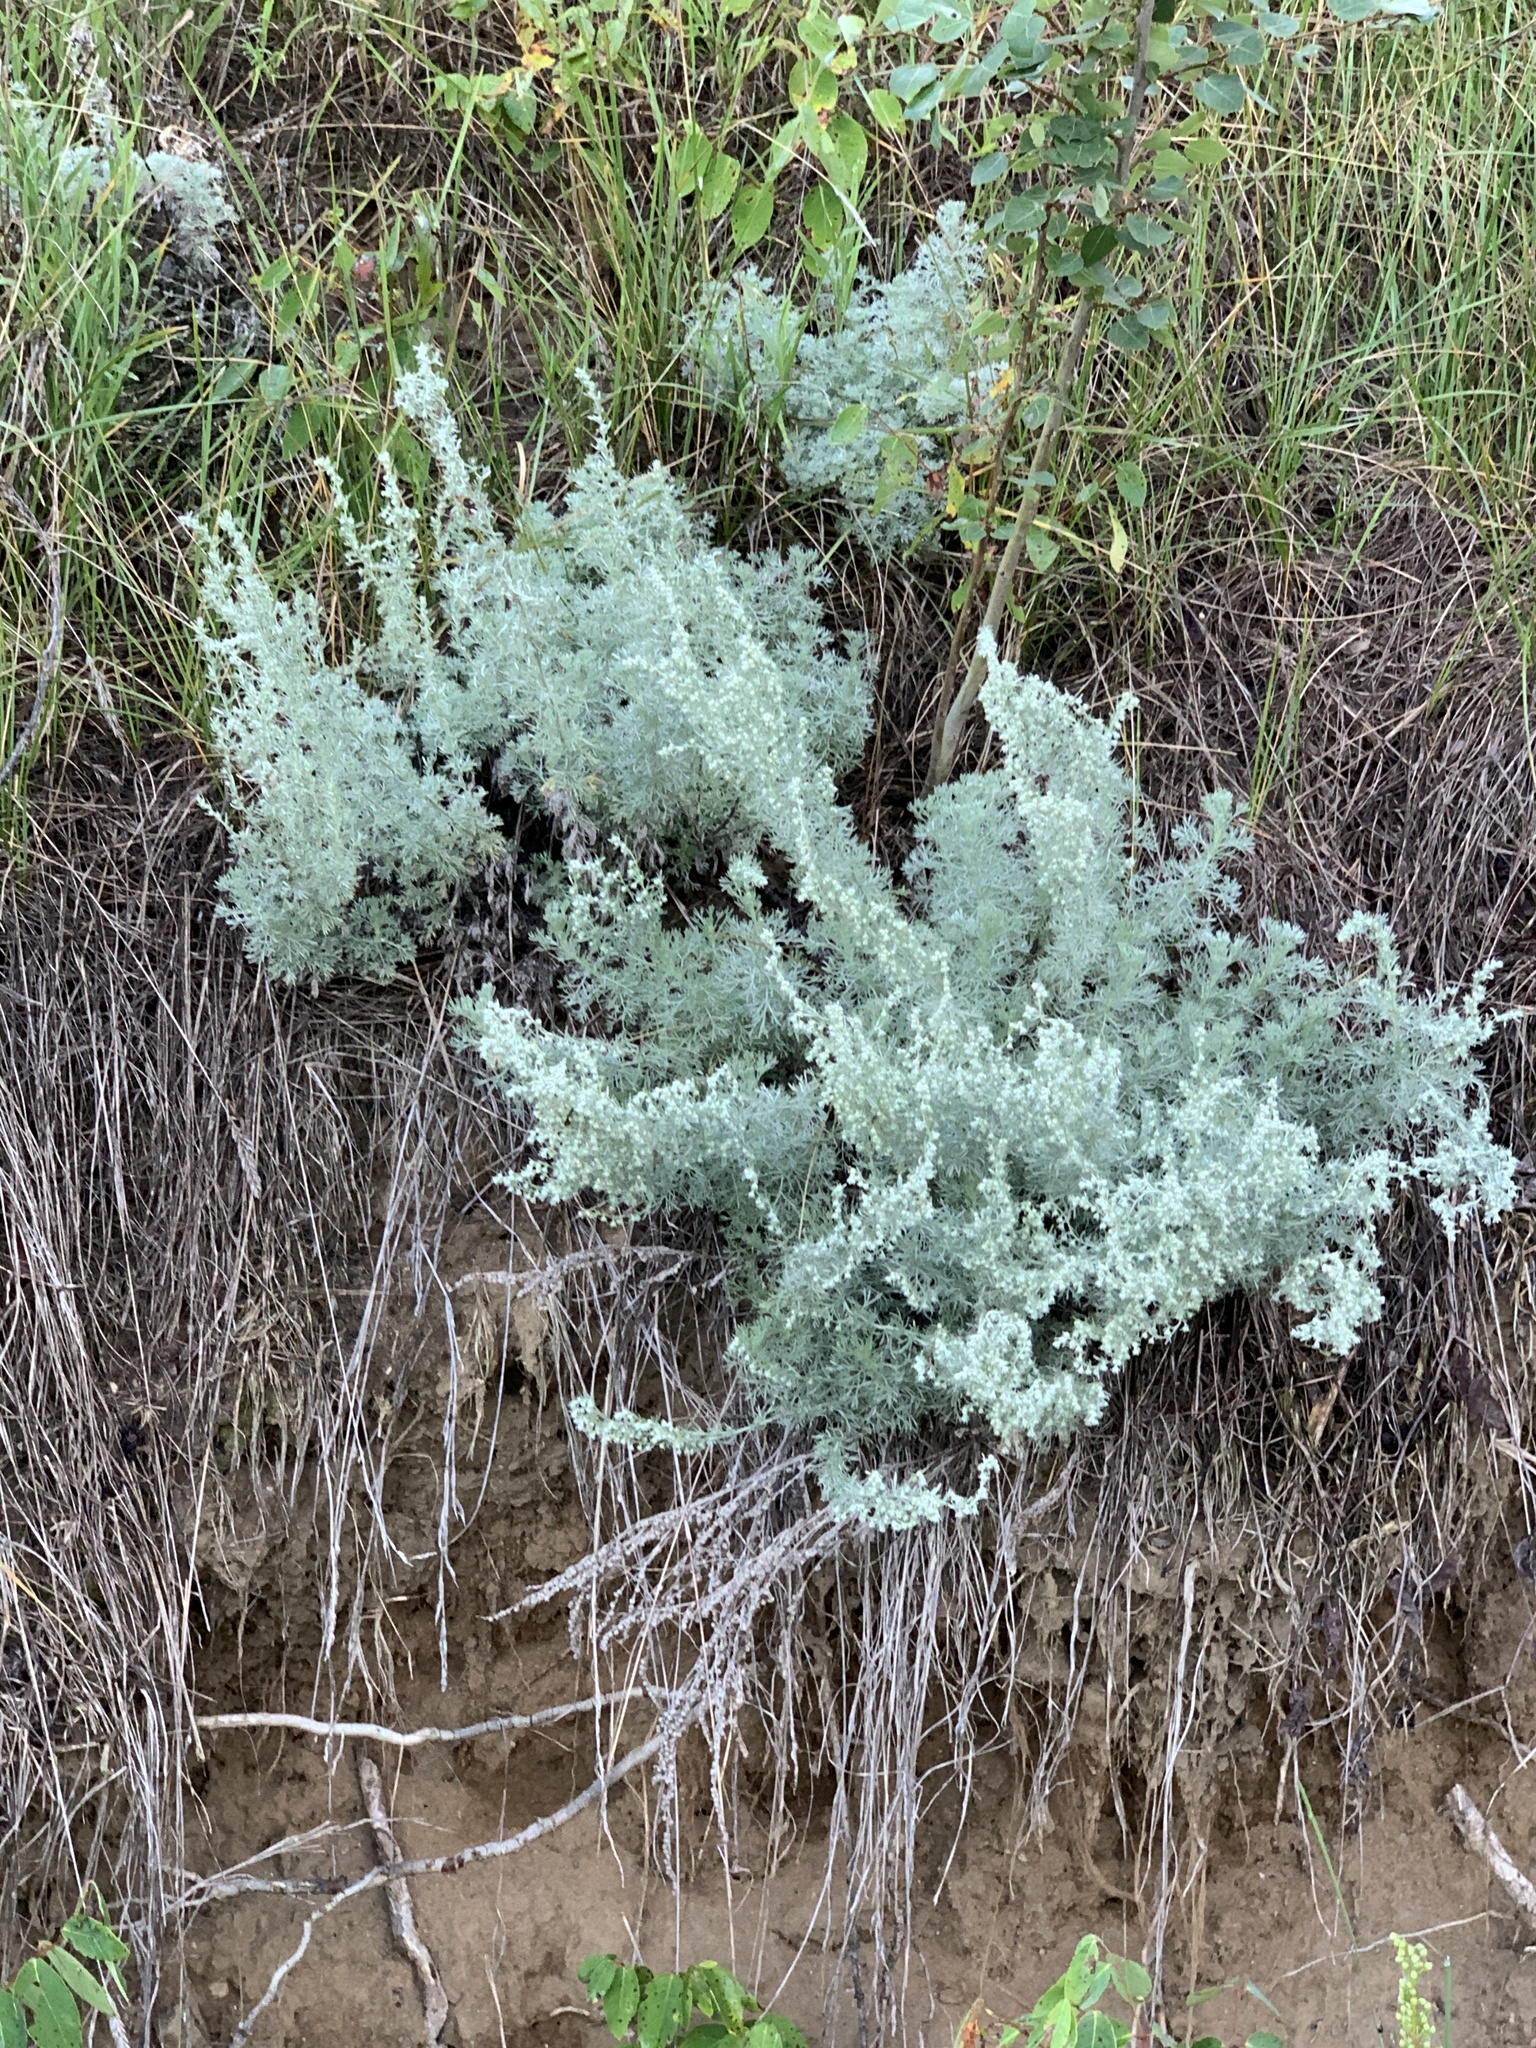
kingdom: Plantae
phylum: Tracheophyta
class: Magnoliopsida
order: Asterales
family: Asteraceae
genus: Artemisia
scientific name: Artemisia frigida
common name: Prairie sagewort
